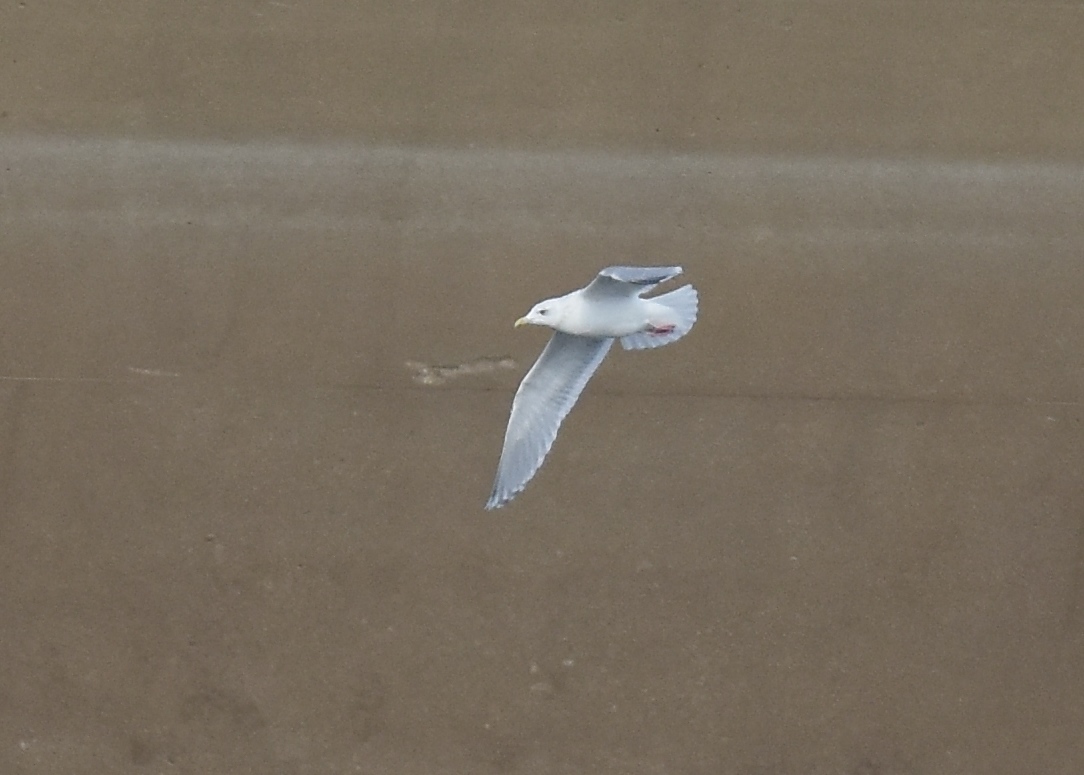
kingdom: Animalia
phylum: Chordata
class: Aves
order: Charadriiformes
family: Laridae
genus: Larus
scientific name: Larus glaucoides
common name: Iceland gull
